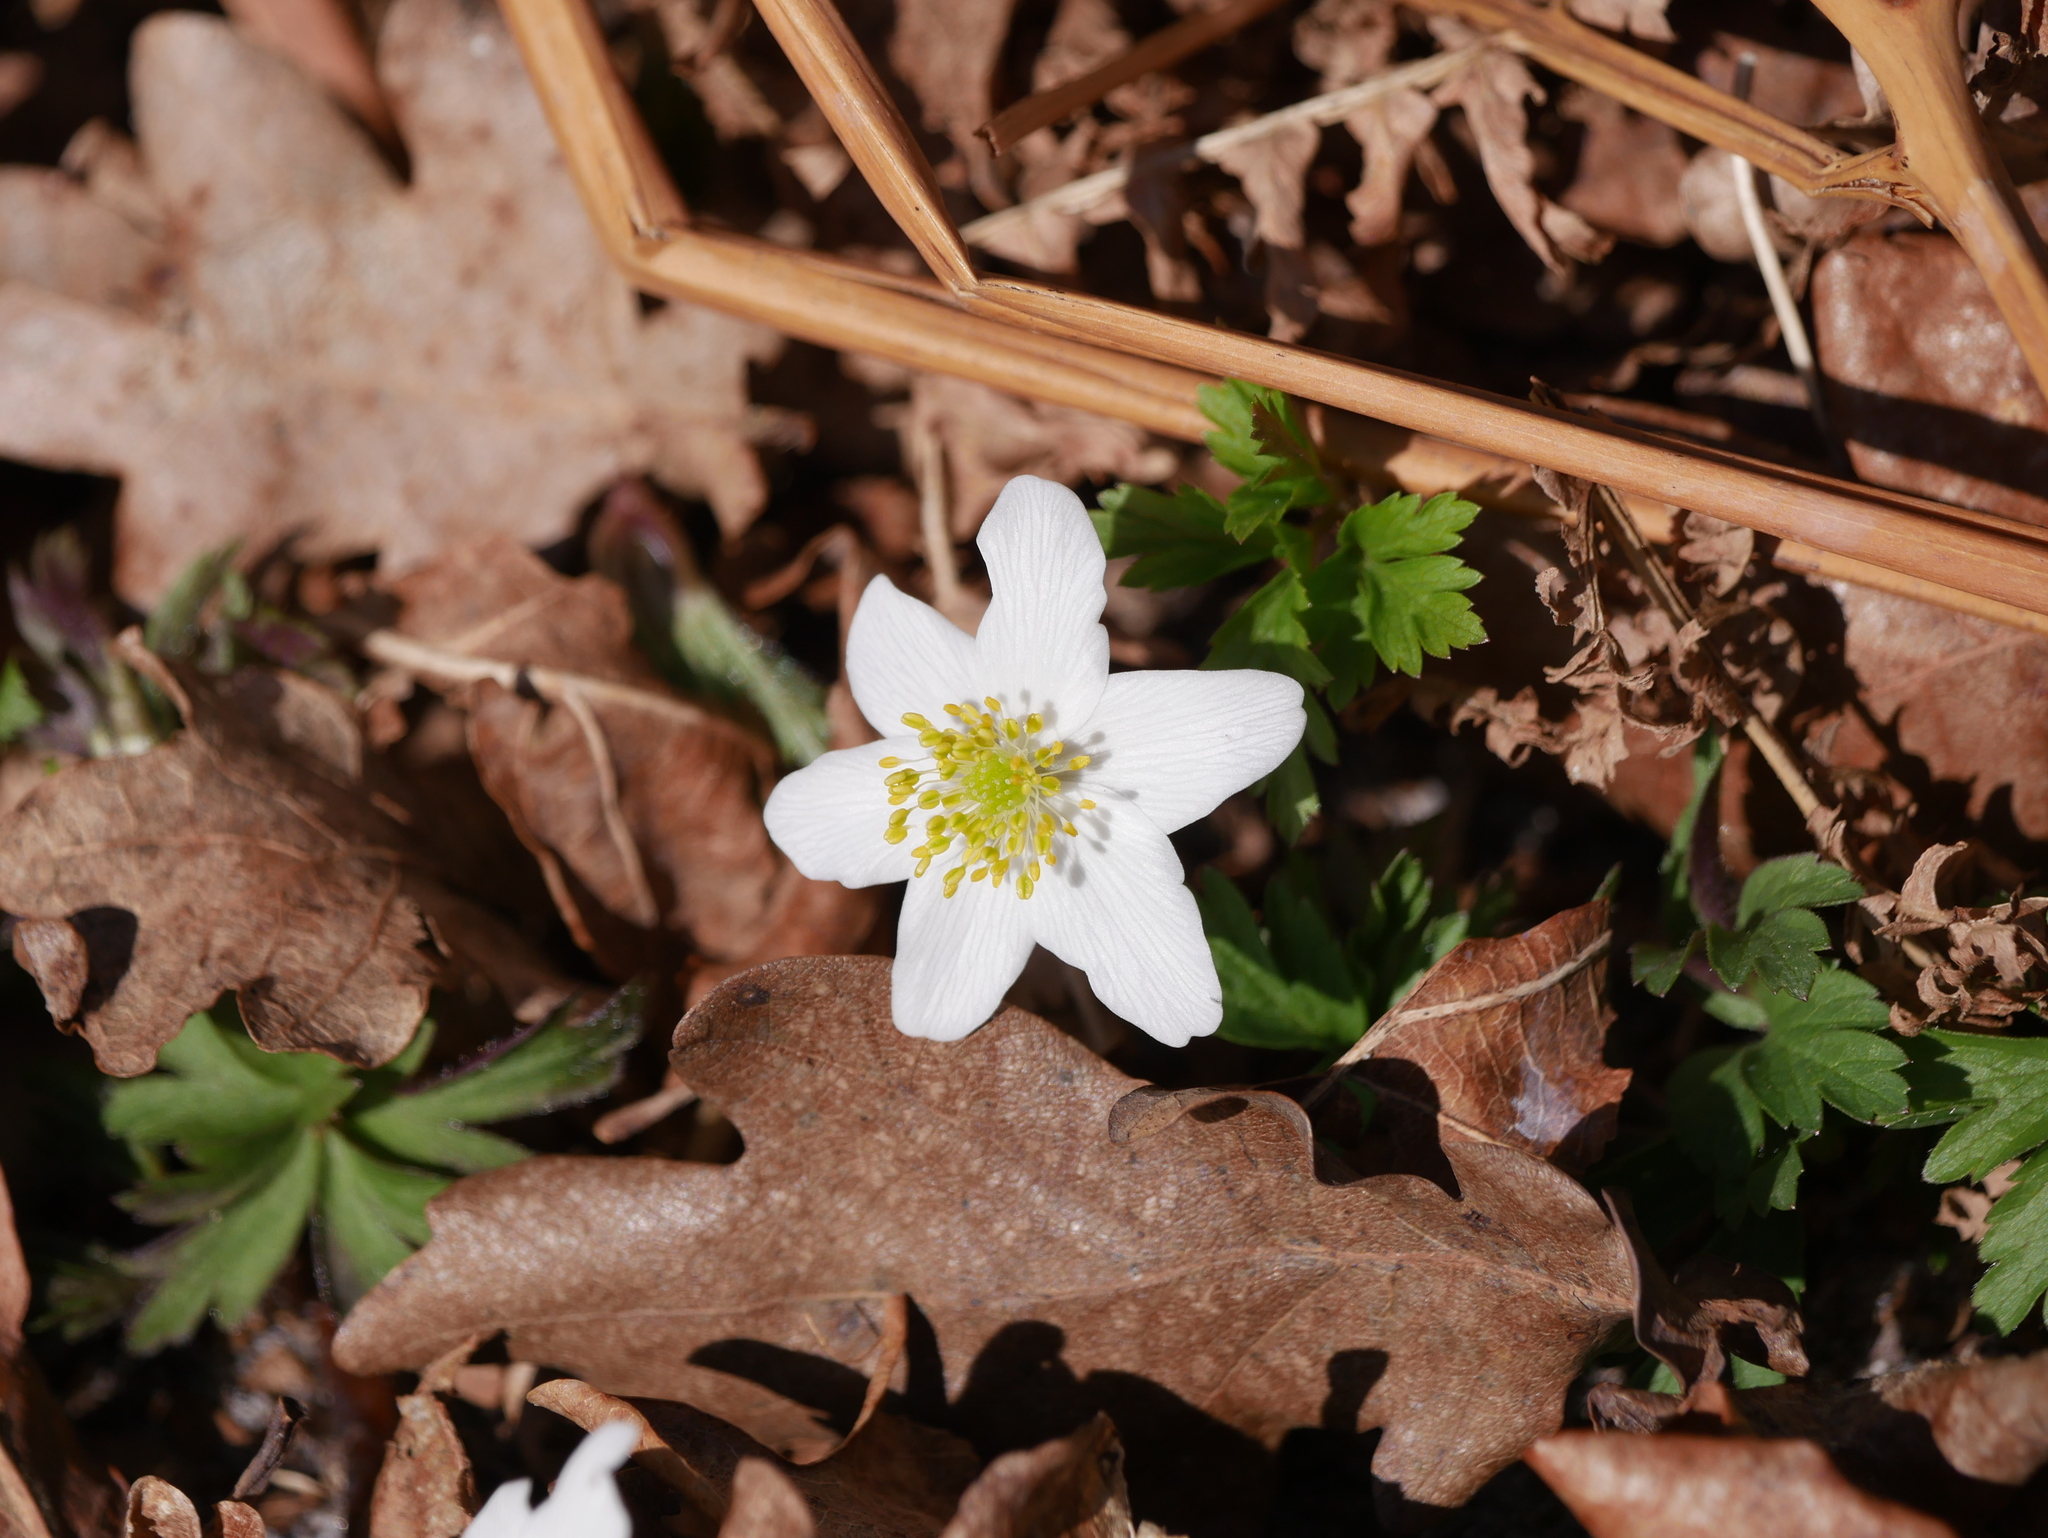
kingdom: Plantae
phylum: Tracheophyta
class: Magnoliopsida
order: Ranunculales
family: Ranunculaceae
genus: Anemone
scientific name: Anemone nemorosa
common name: Wood anemone
